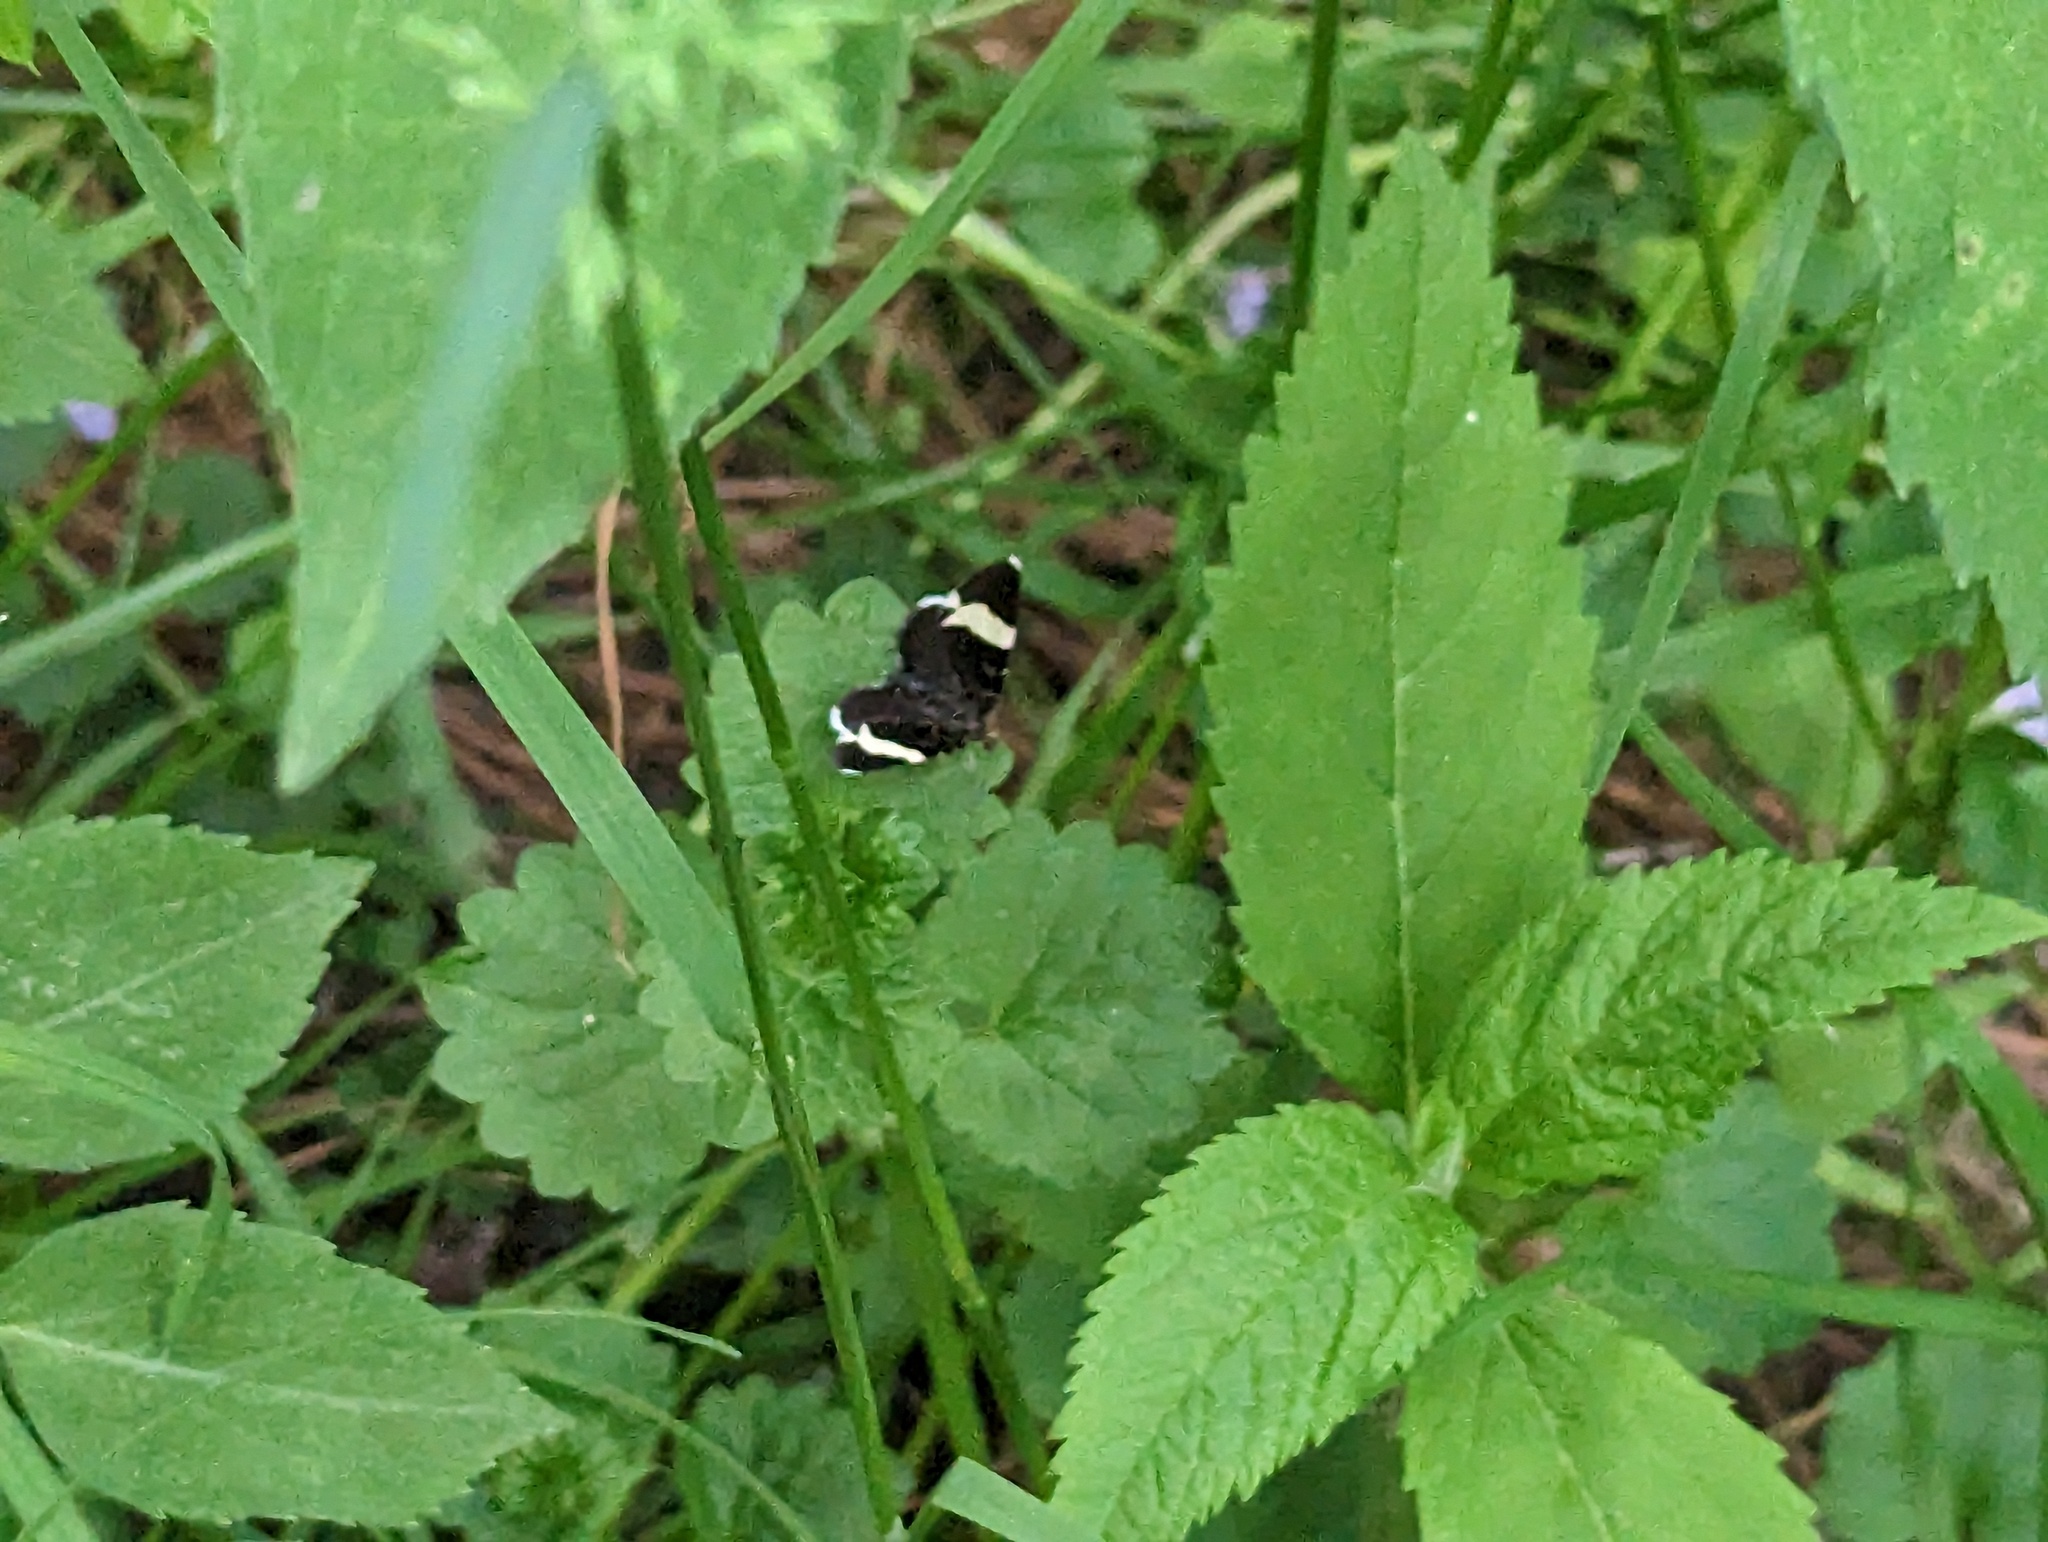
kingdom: Animalia
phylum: Arthropoda
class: Insecta
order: Lepidoptera
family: Geometridae
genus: Trichodezia
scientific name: Trichodezia albovittata
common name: White striped black
